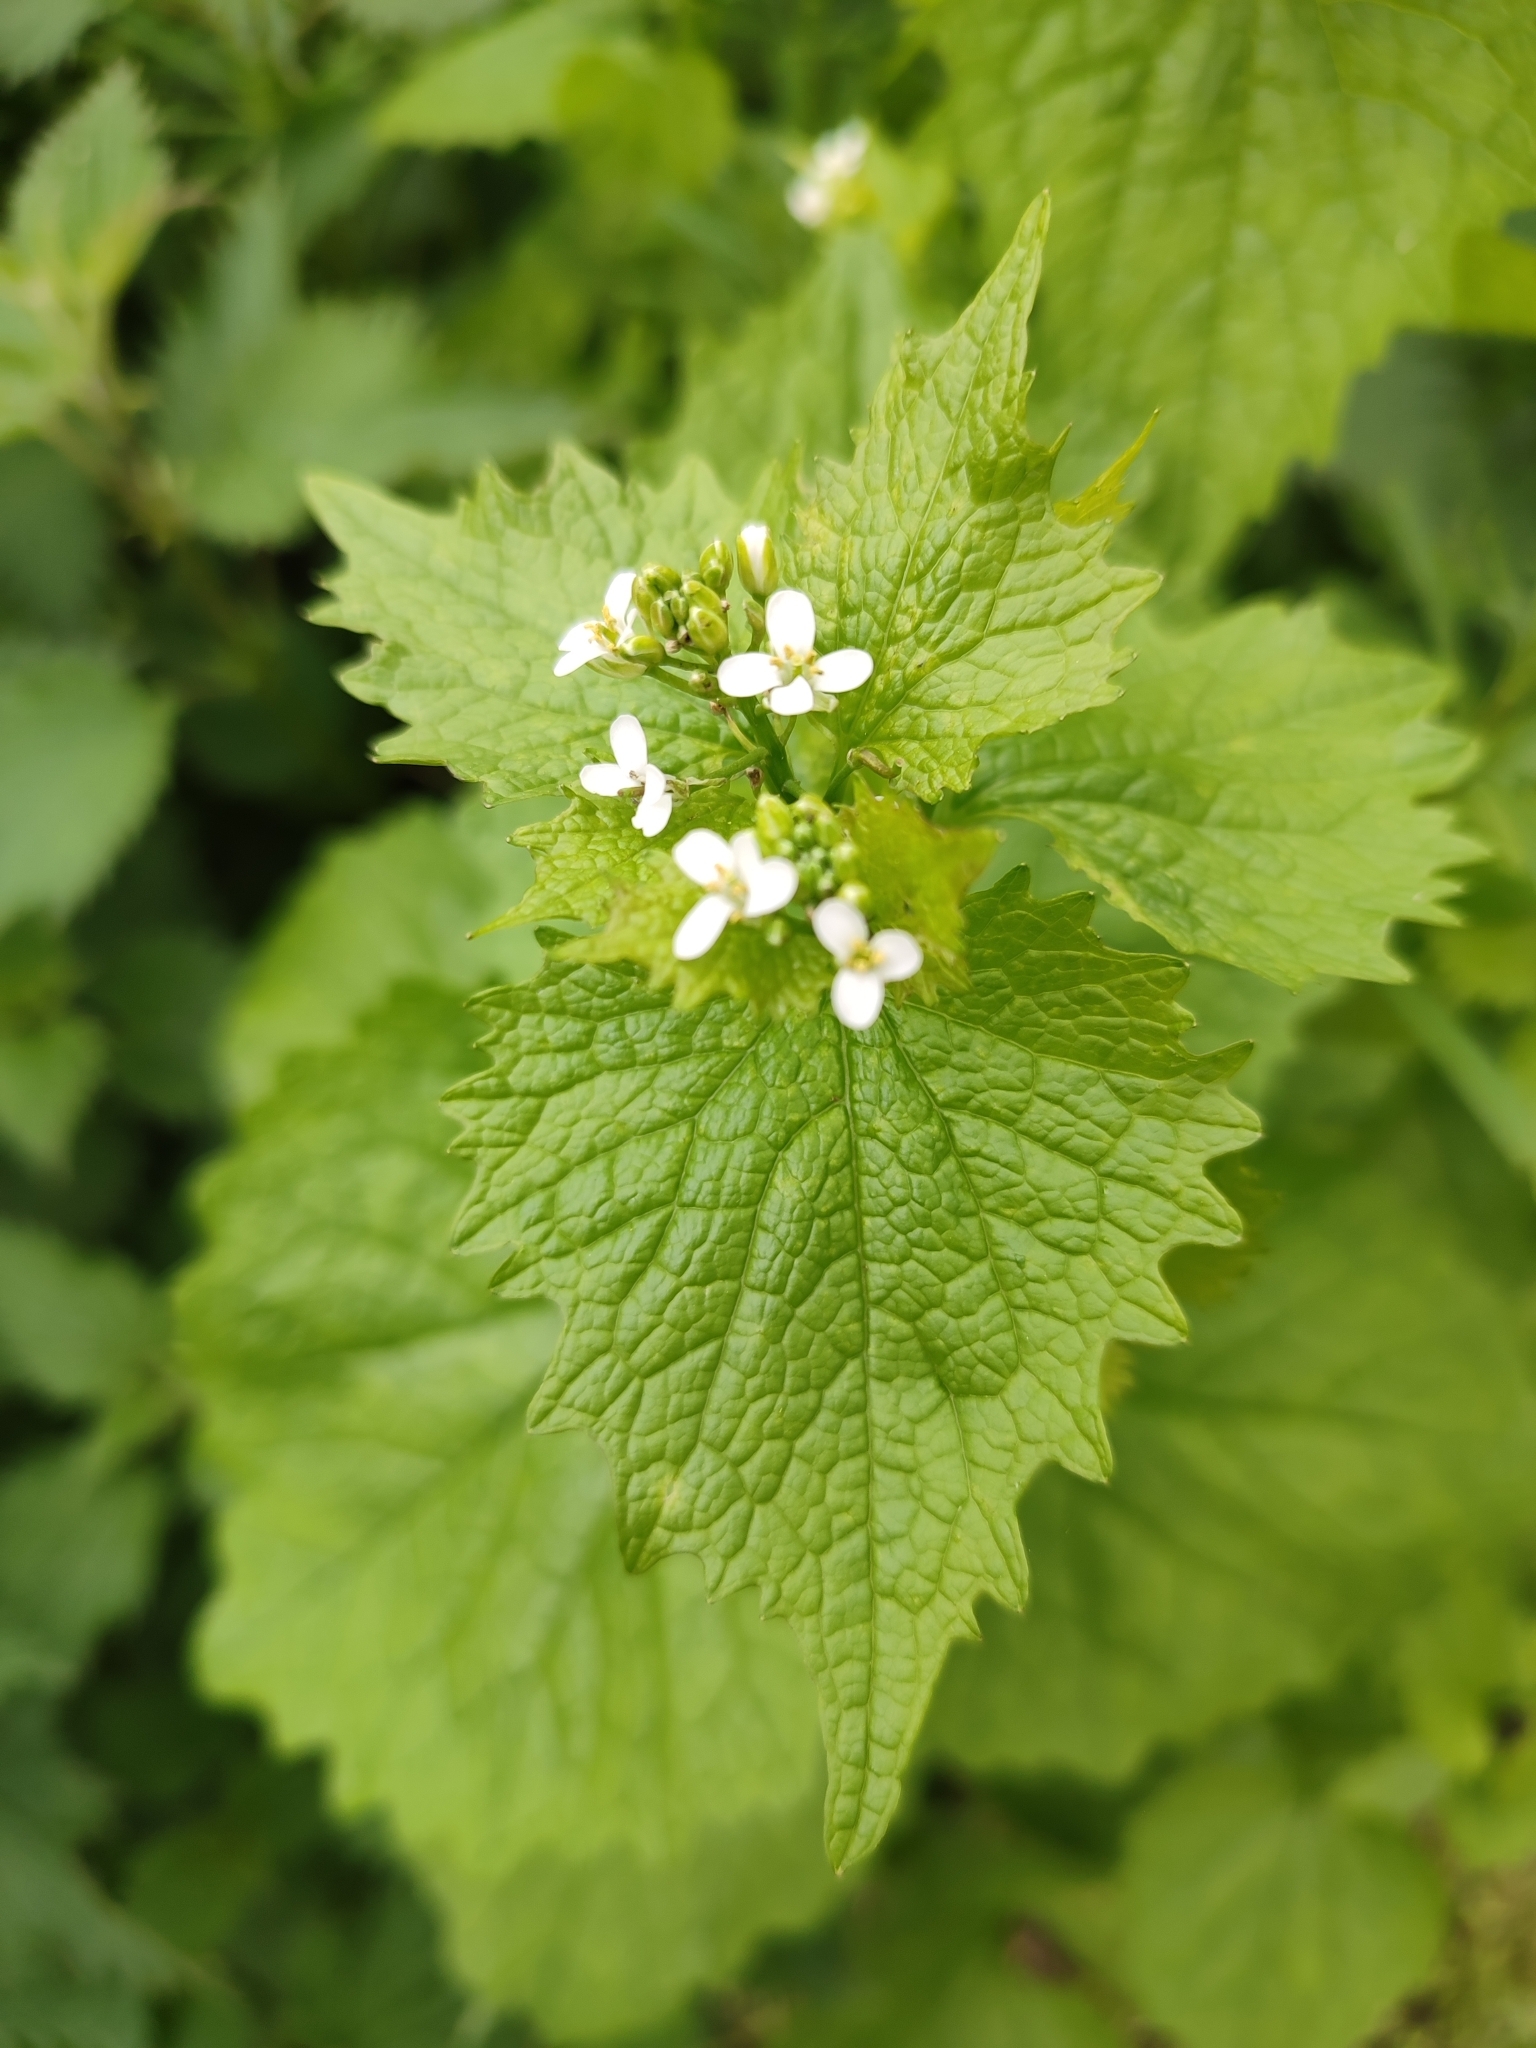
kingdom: Plantae
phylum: Tracheophyta
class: Magnoliopsida
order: Brassicales
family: Brassicaceae
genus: Alliaria
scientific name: Alliaria petiolata
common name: Garlic mustard
